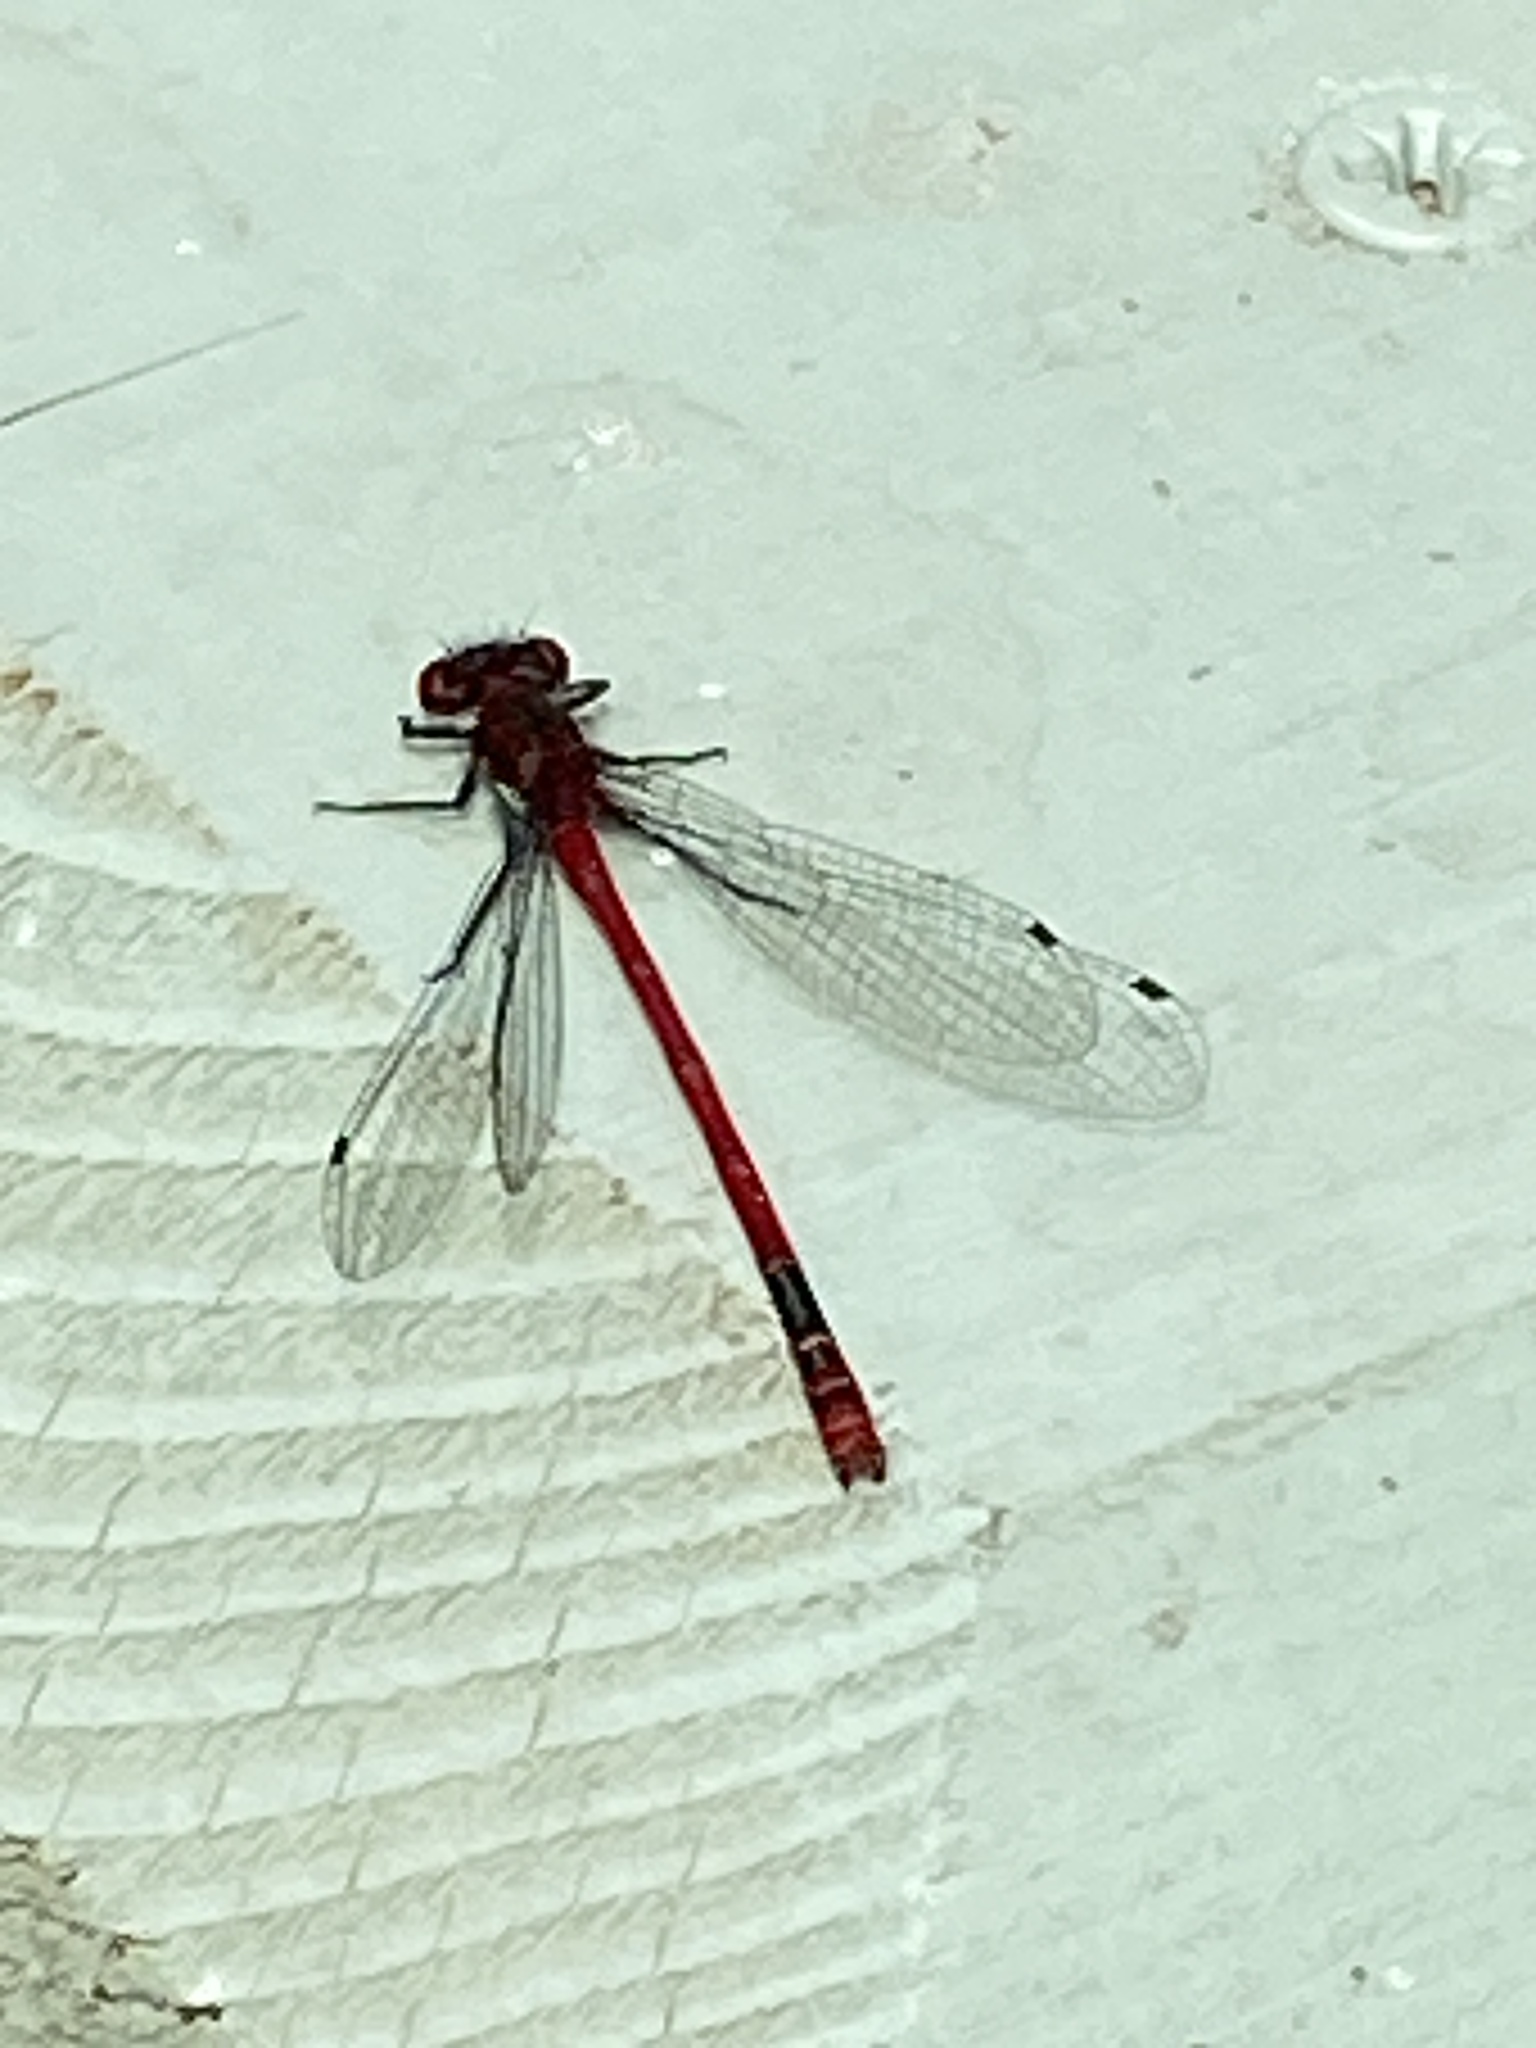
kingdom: Animalia
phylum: Arthropoda
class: Insecta
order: Odonata
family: Coenagrionidae
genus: Pyrrhosoma
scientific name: Pyrrhosoma nymphula
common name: Large red damsel
